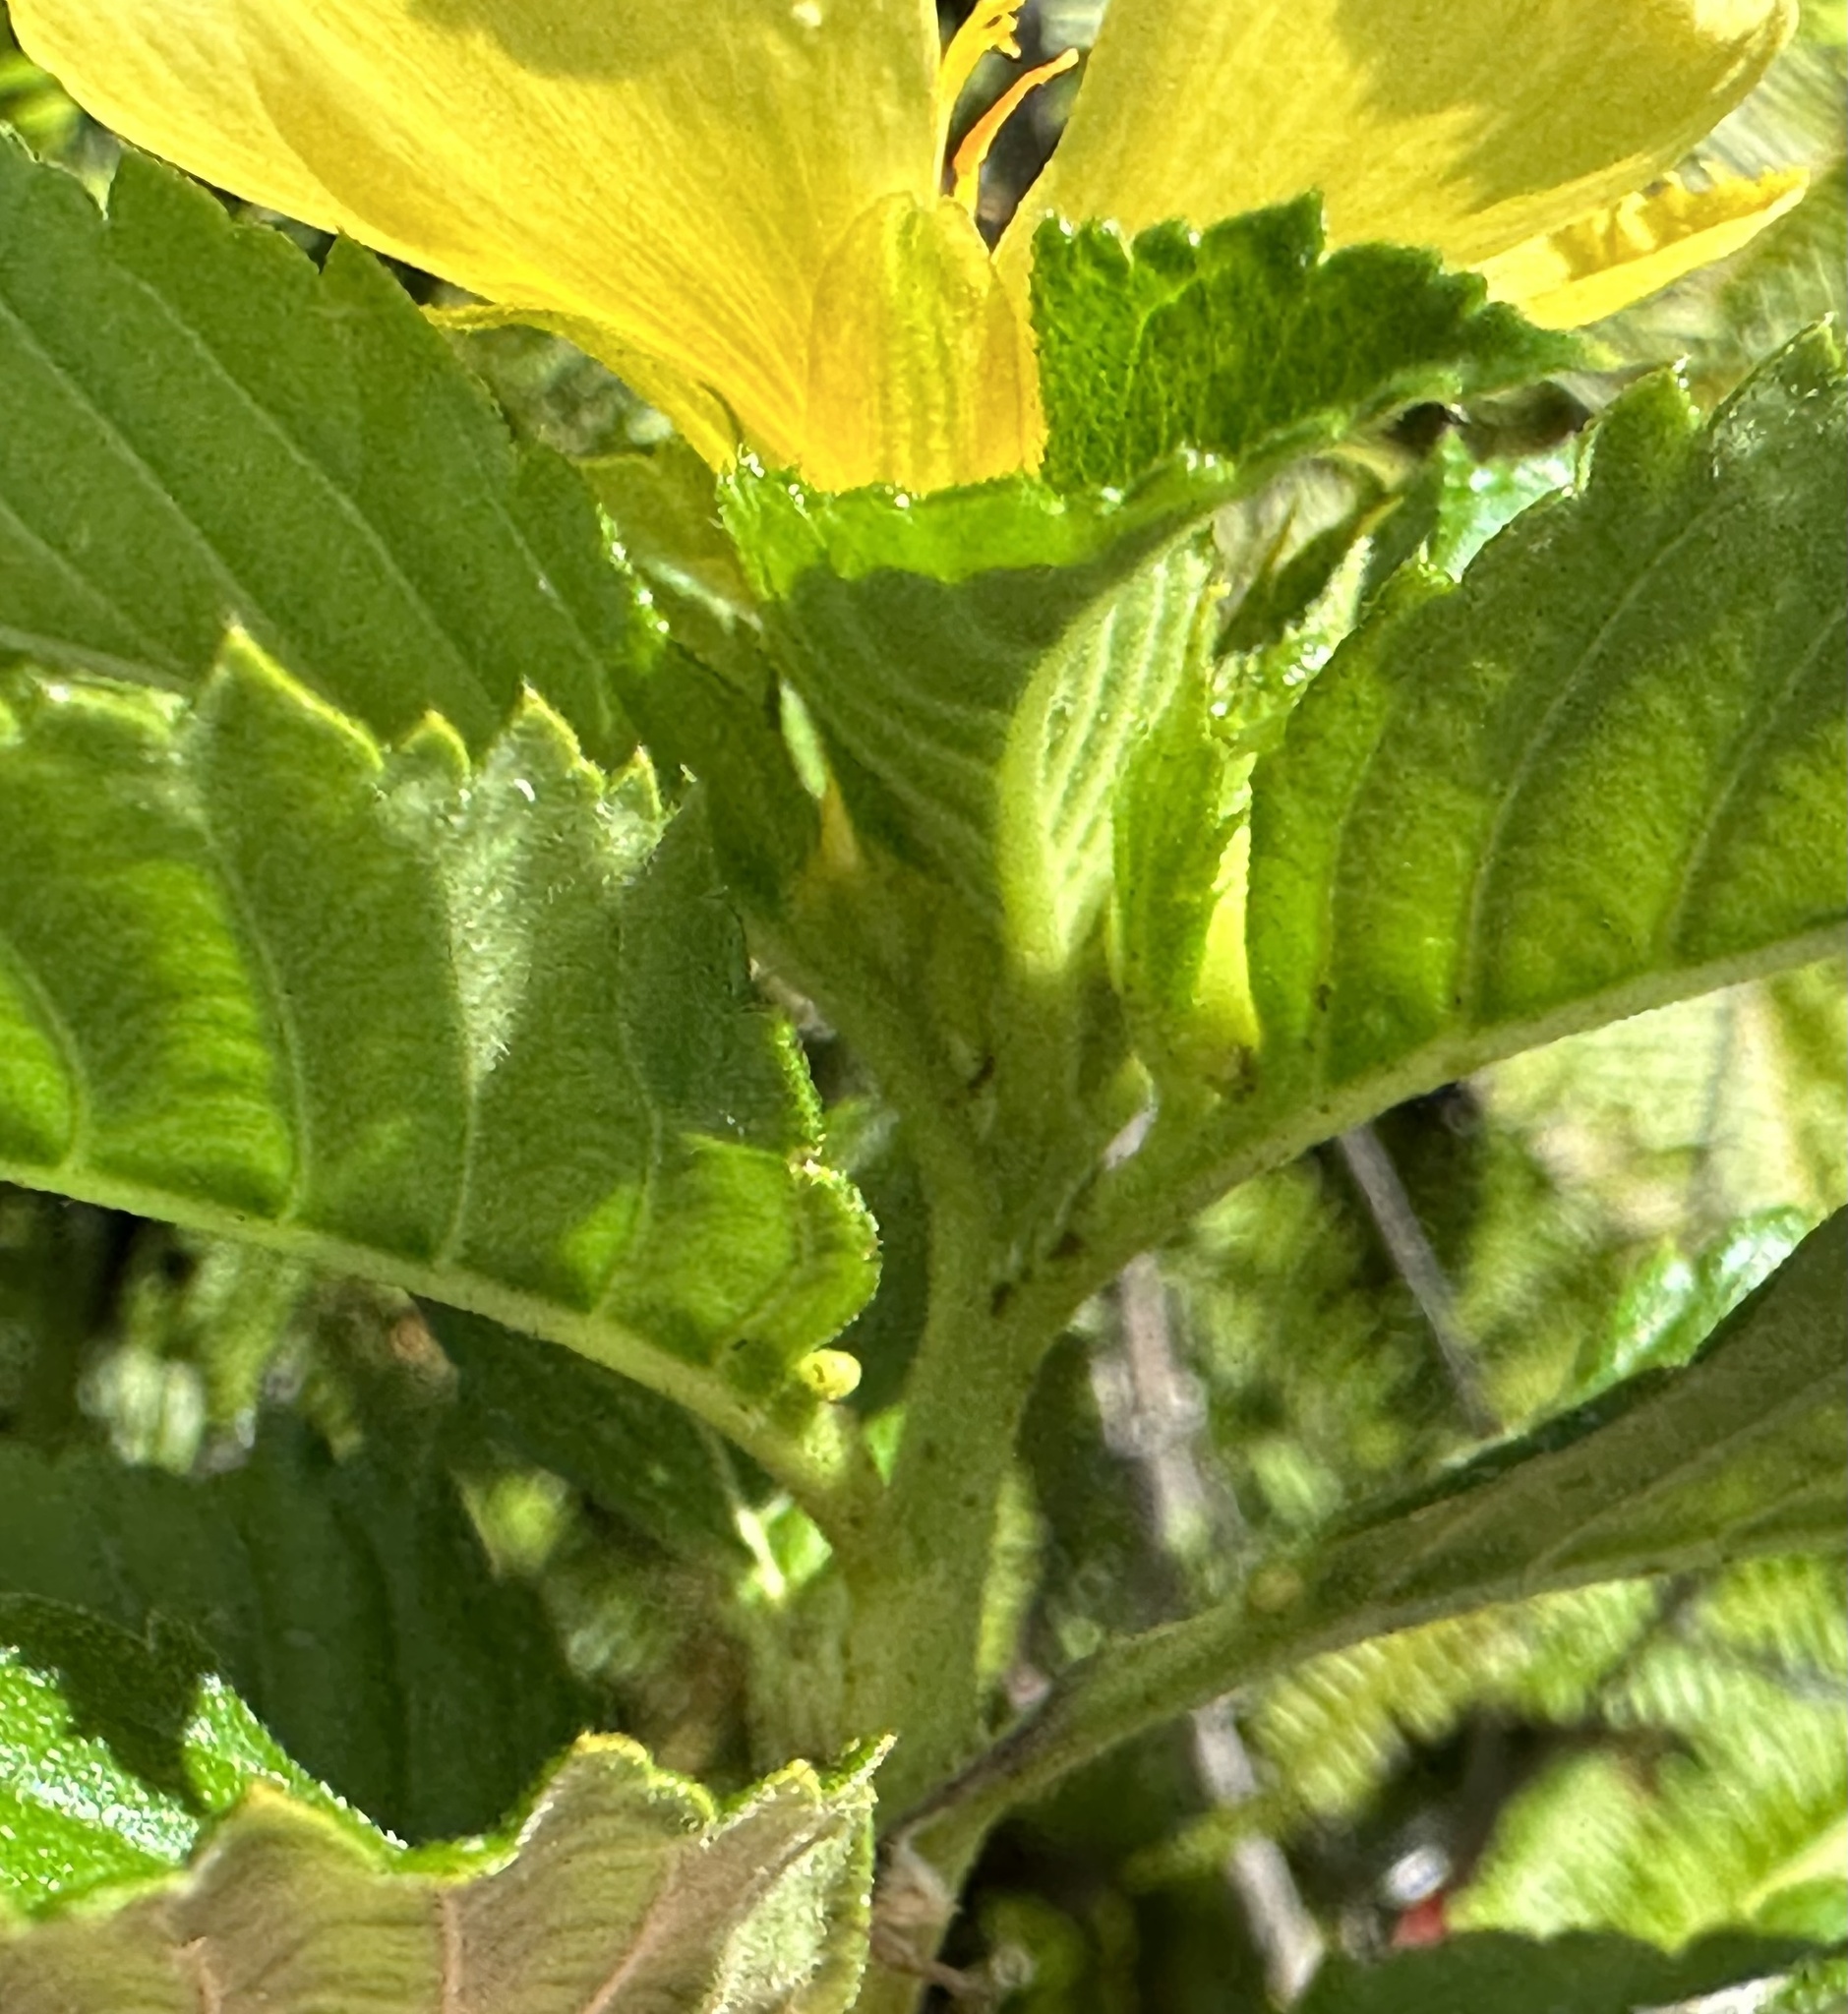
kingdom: Plantae
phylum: Tracheophyta
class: Magnoliopsida
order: Malpighiales
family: Turneraceae
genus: Turnera
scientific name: Turnera ulmifolia
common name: Ramgoat dashalong
